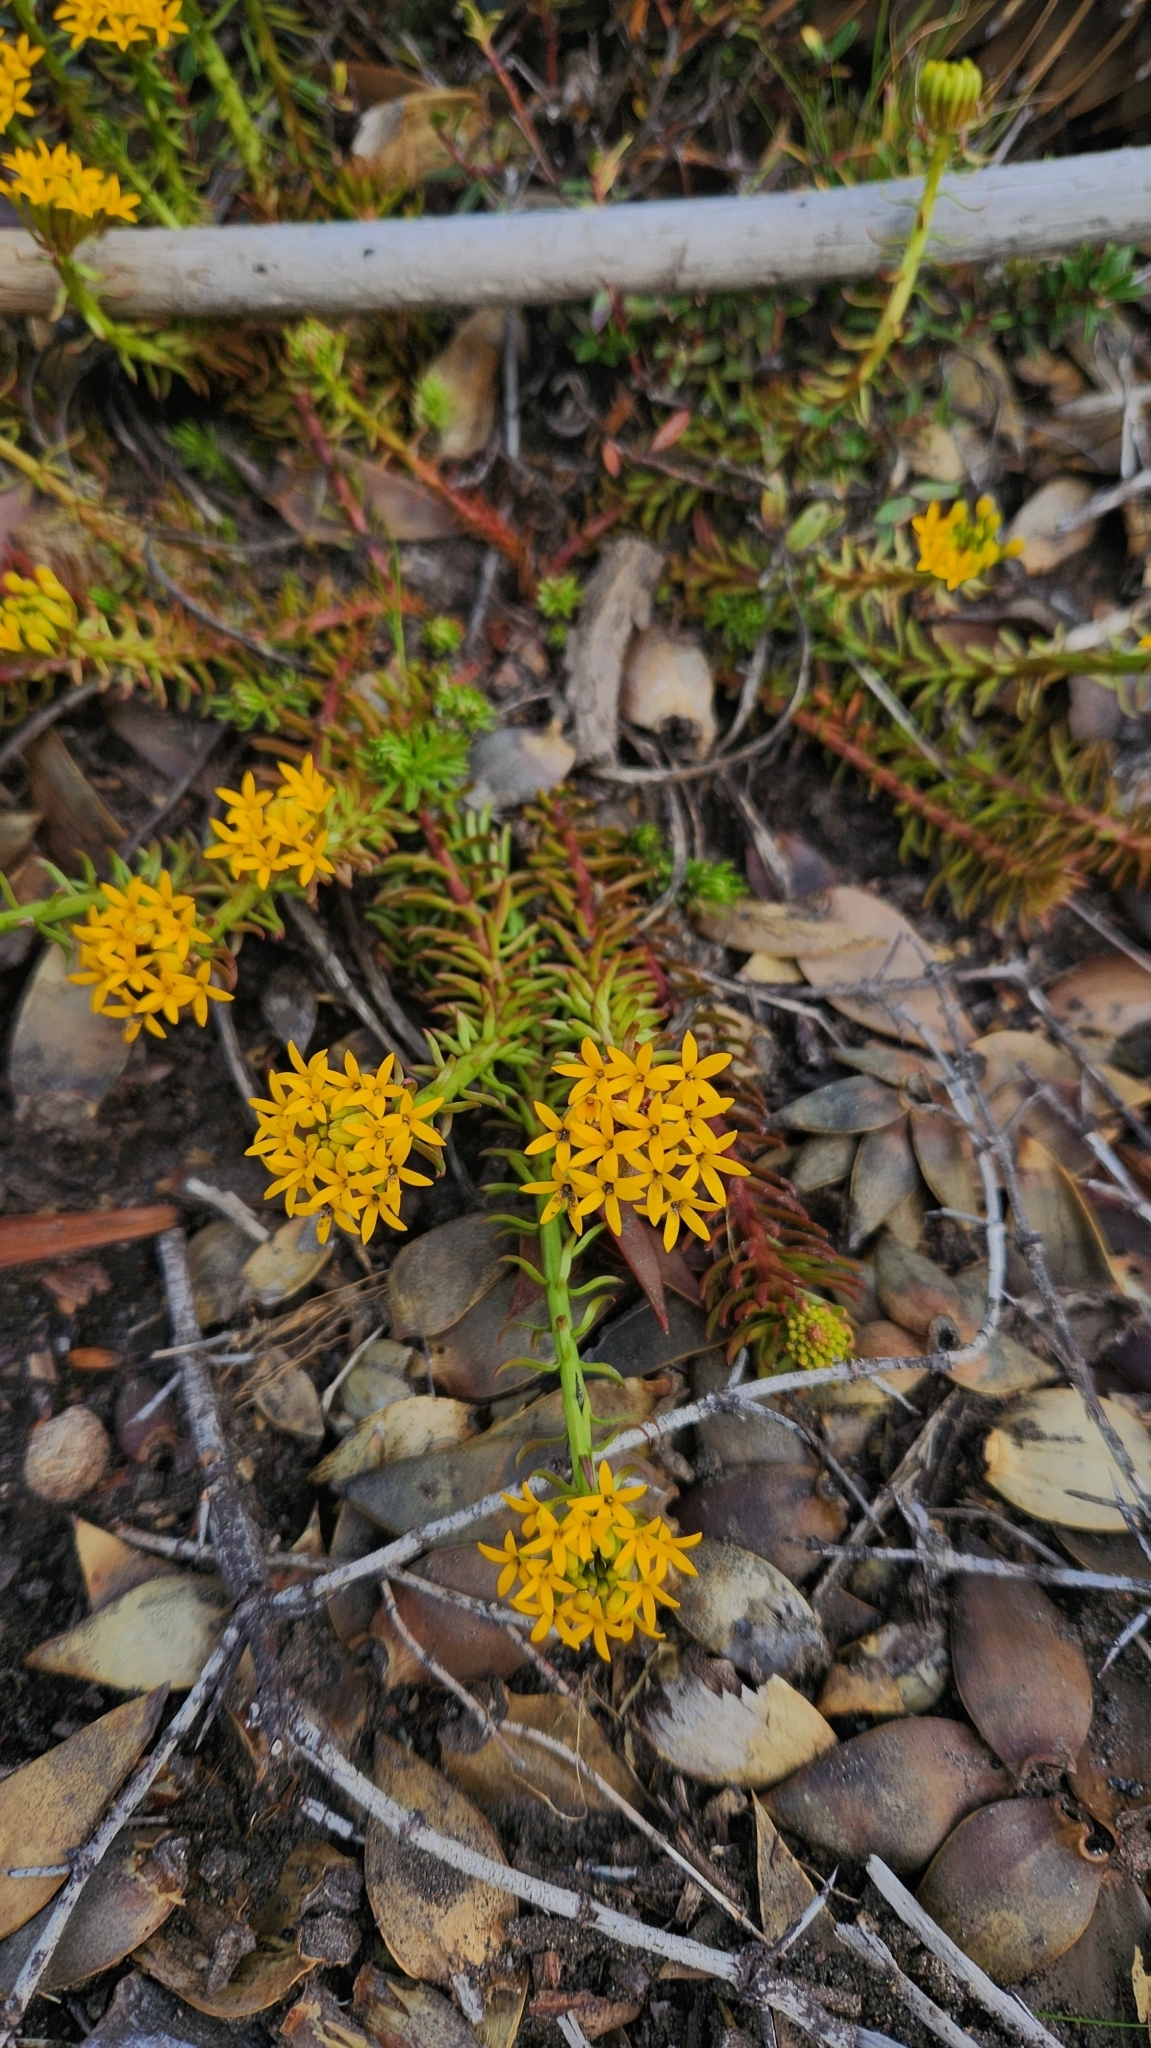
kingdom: Plantae
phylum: Tracheophyta
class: Magnoliopsida
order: Santalales
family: Schoepfiaceae
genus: Quinchamalium
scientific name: Quinchamalium chilense
